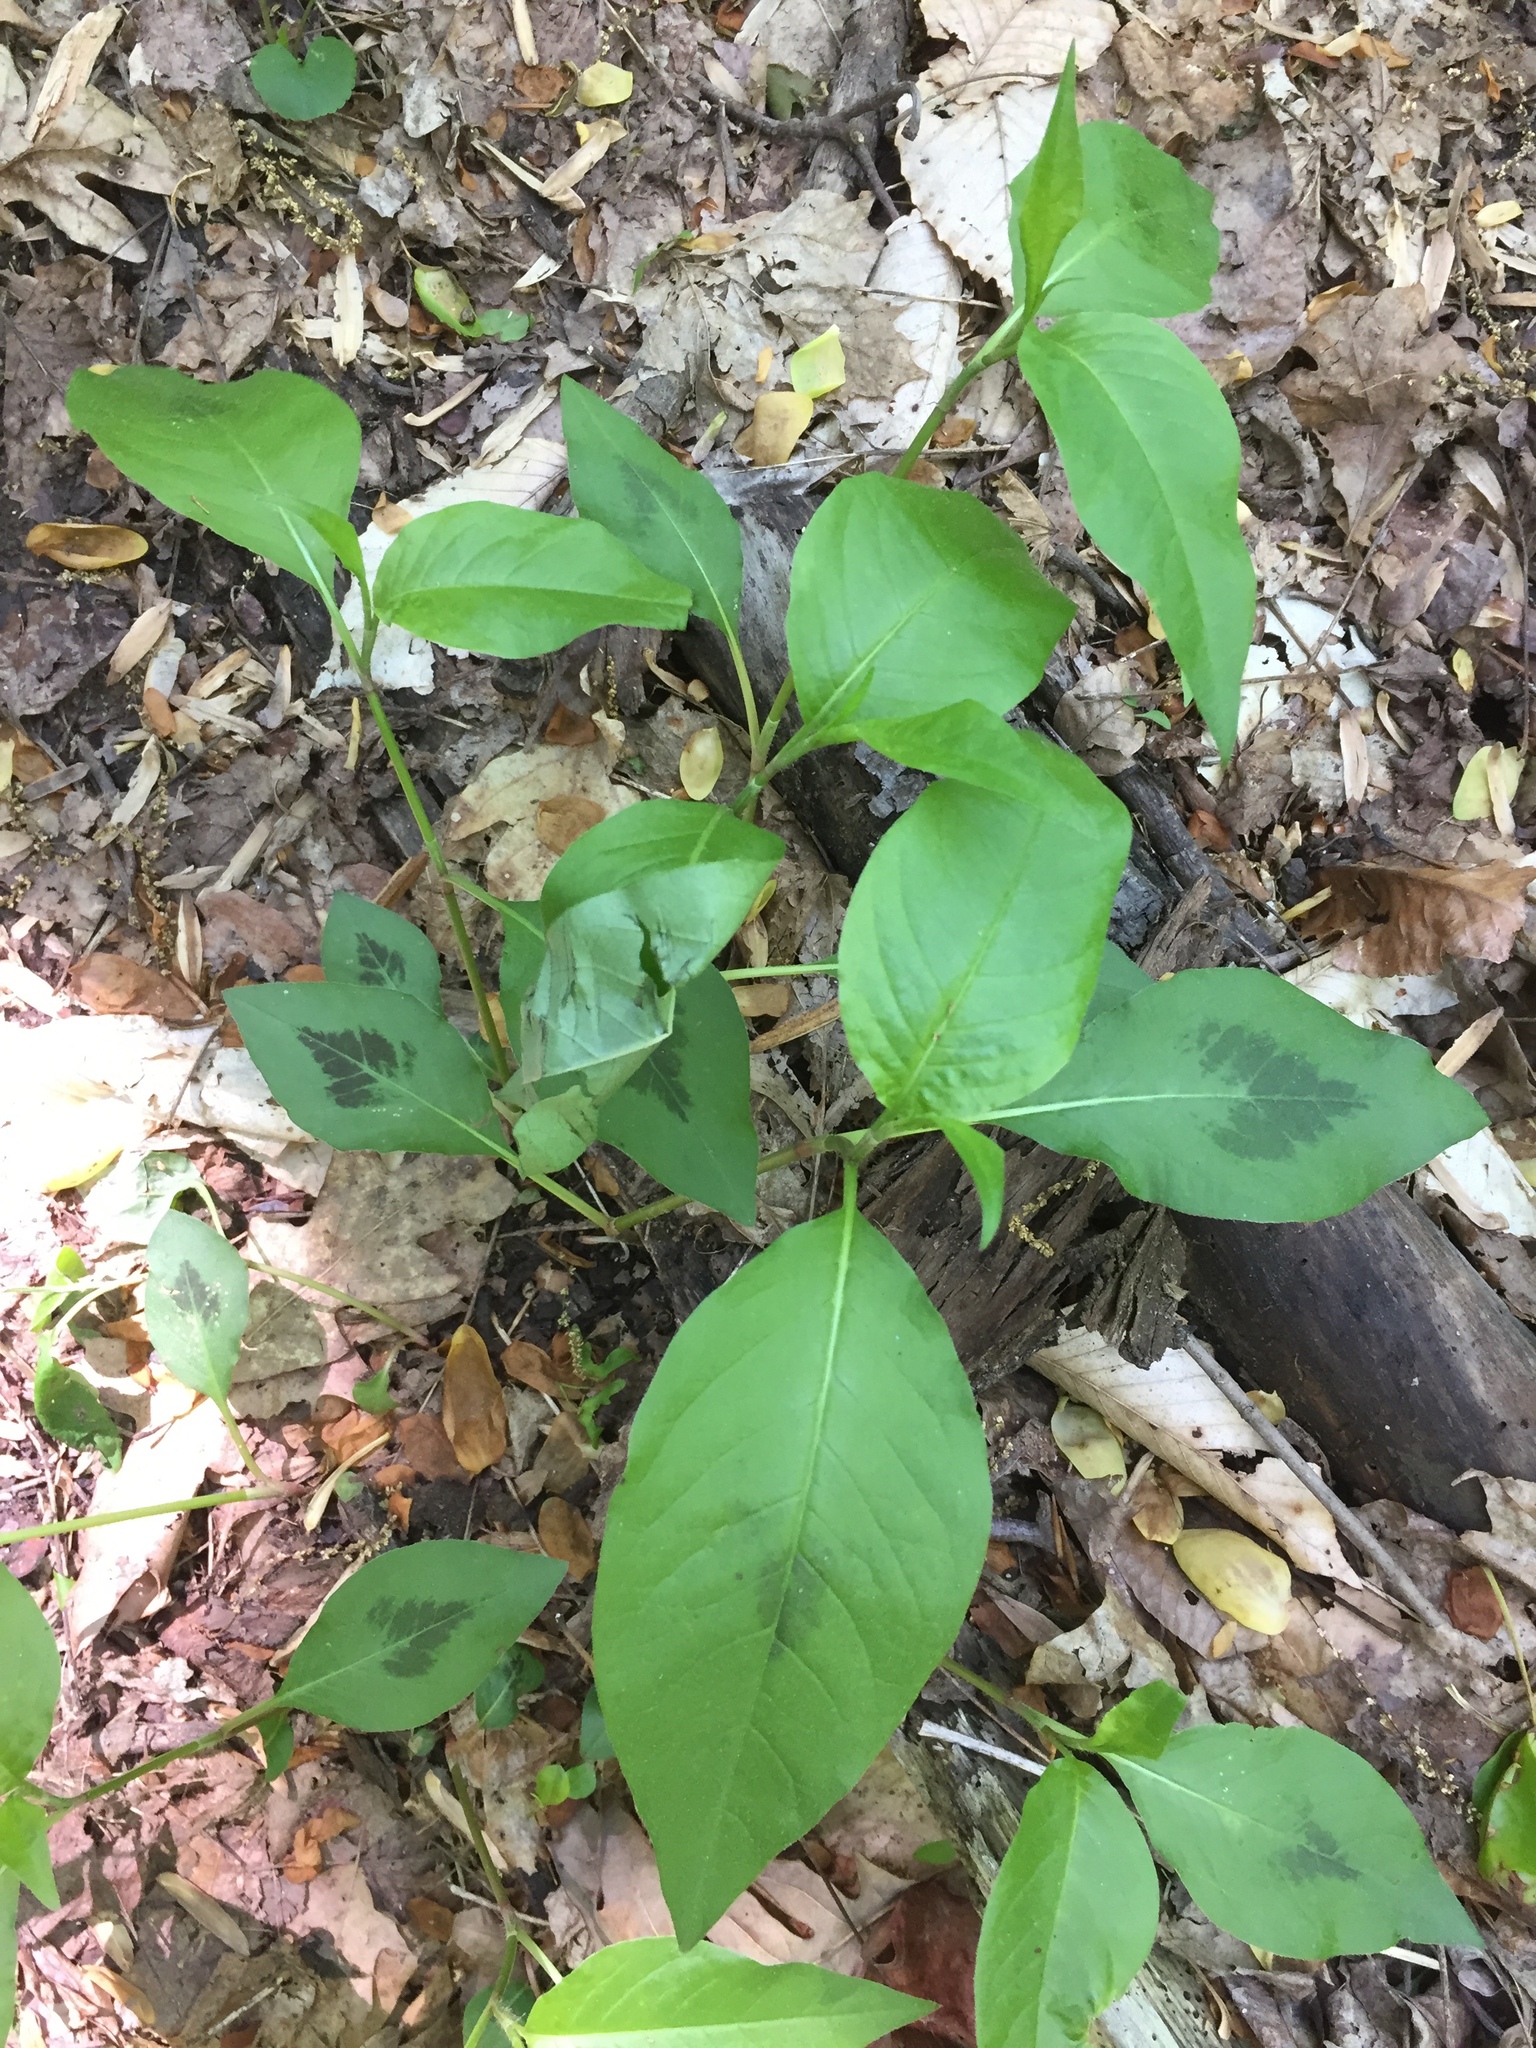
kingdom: Plantae
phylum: Tracheophyta
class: Magnoliopsida
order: Caryophyllales
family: Polygonaceae
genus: Persicaria
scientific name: Persicaria virginiana
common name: Jumpseed
